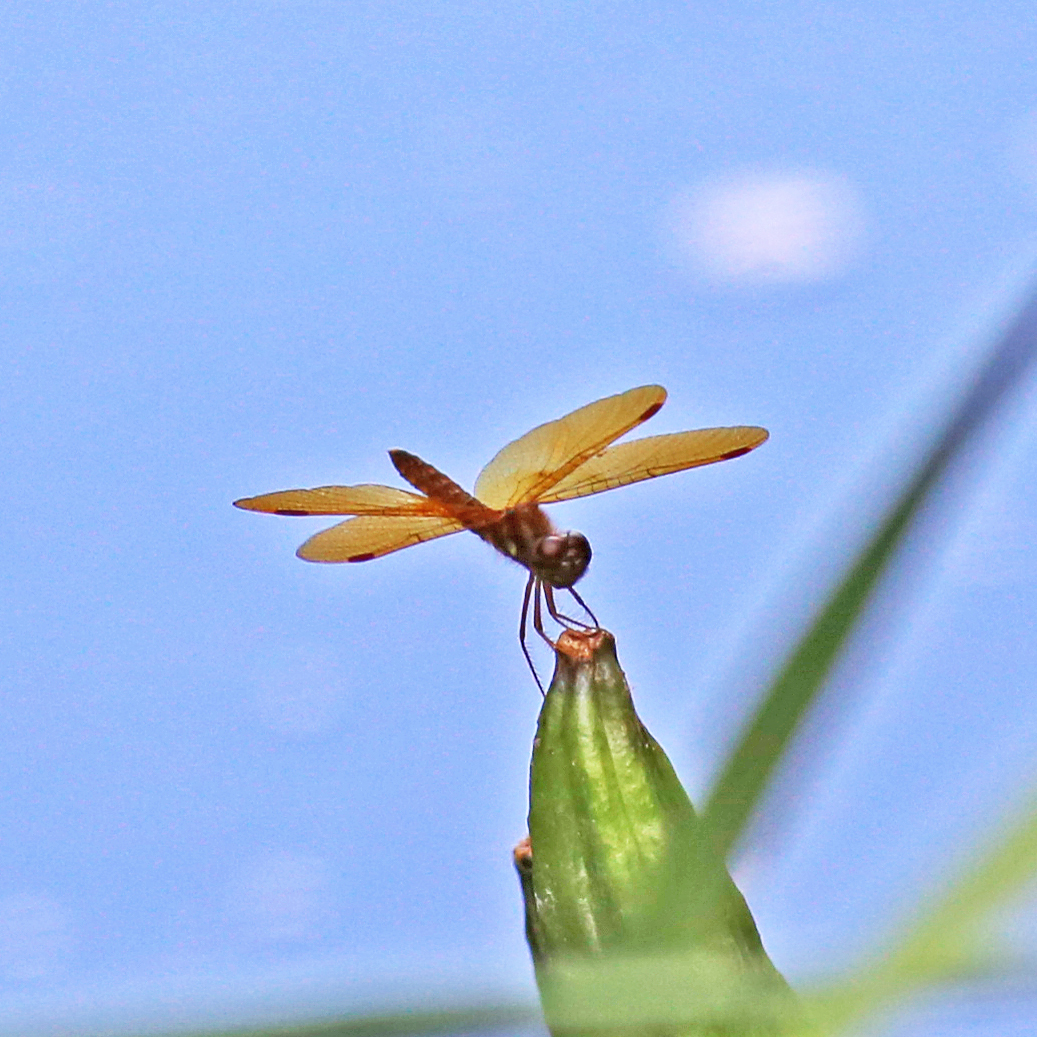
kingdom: Animalia
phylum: Arthropoda
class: Insecta
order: Odonata
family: Libellulidae
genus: Perithemis
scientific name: Perithemis tenera
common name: Eastern amberwing
